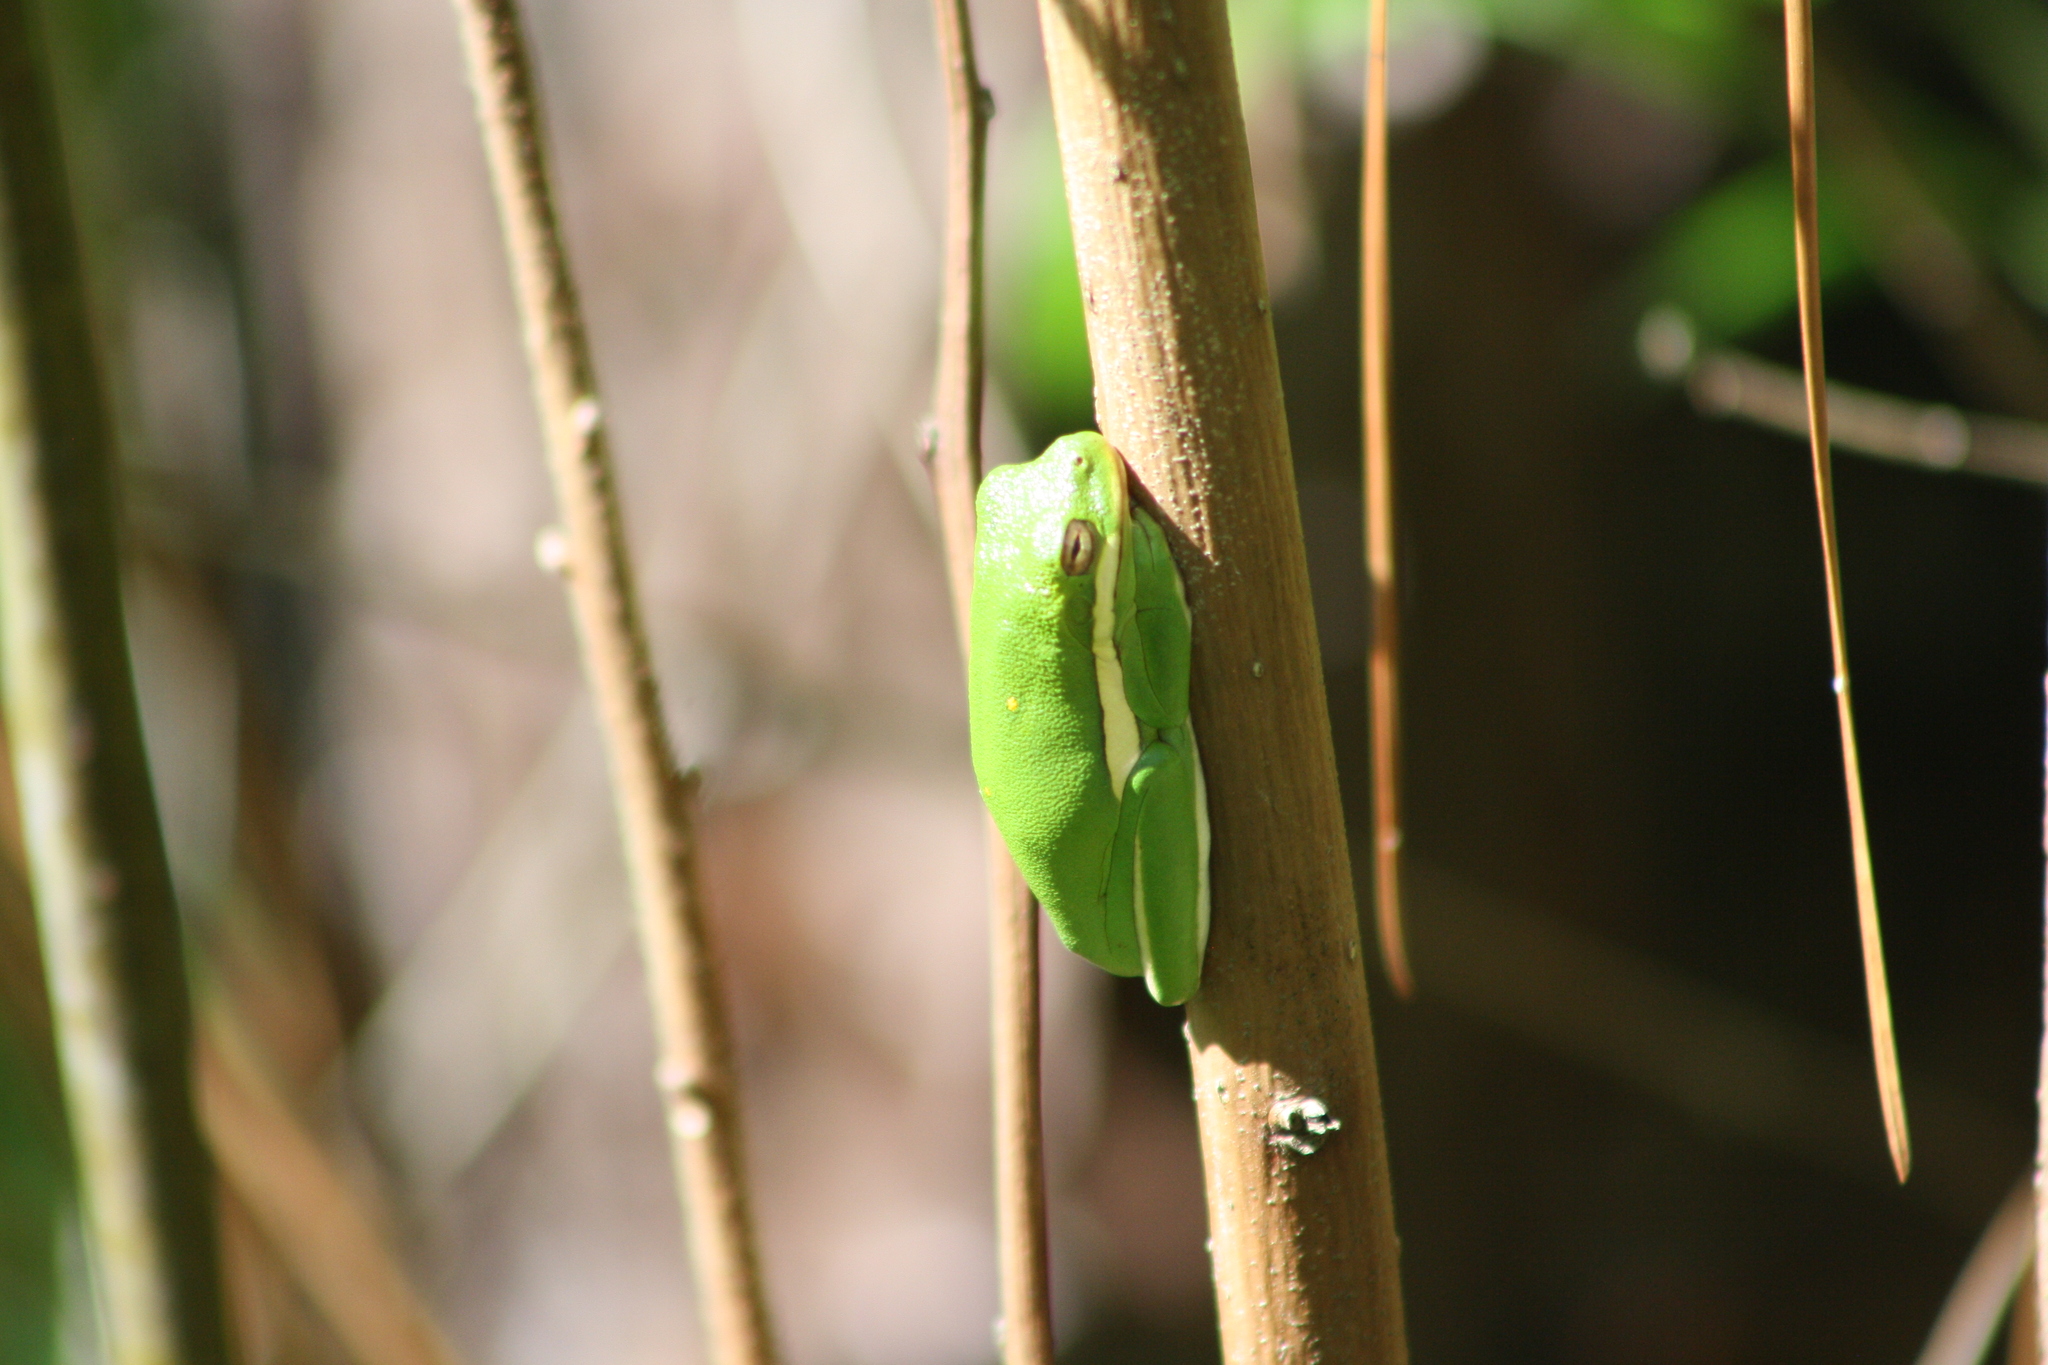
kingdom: Animalia
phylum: Chordata
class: Amphibia
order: Anura
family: Hylidae
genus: Dryophytes
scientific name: Dryophytes cinereus
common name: Green treefrog
